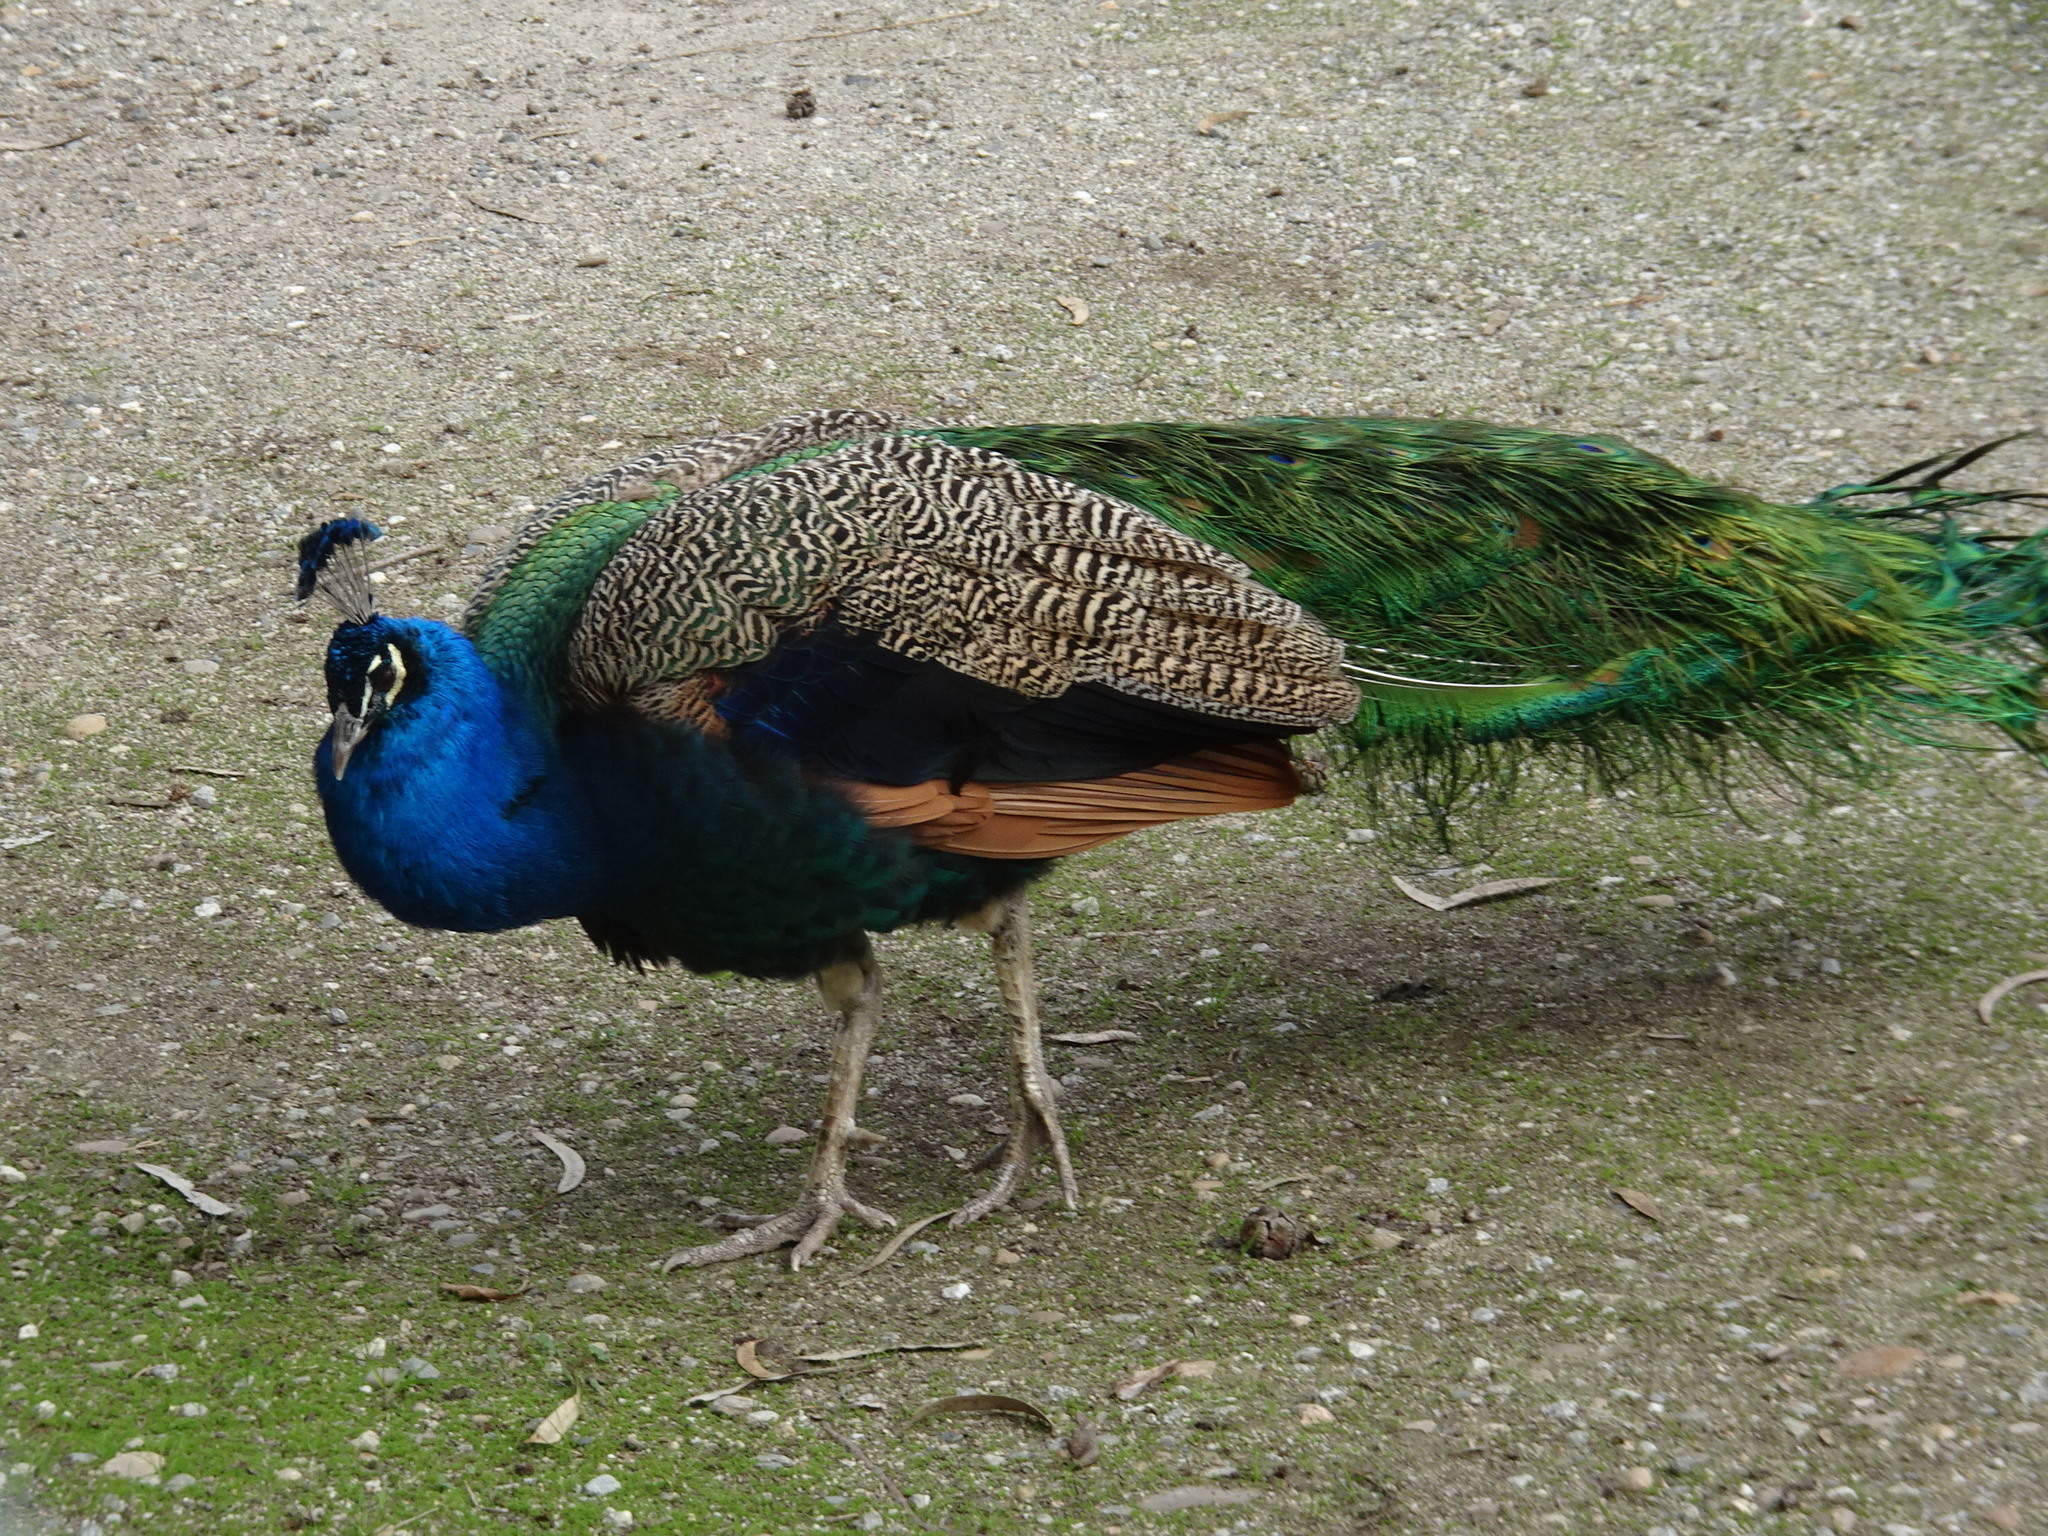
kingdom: Animalia
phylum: Chordata
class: Aves
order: Galliformes
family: Phasianidae
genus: Pavo
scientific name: Pavo cristatus
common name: Indian peafowl
